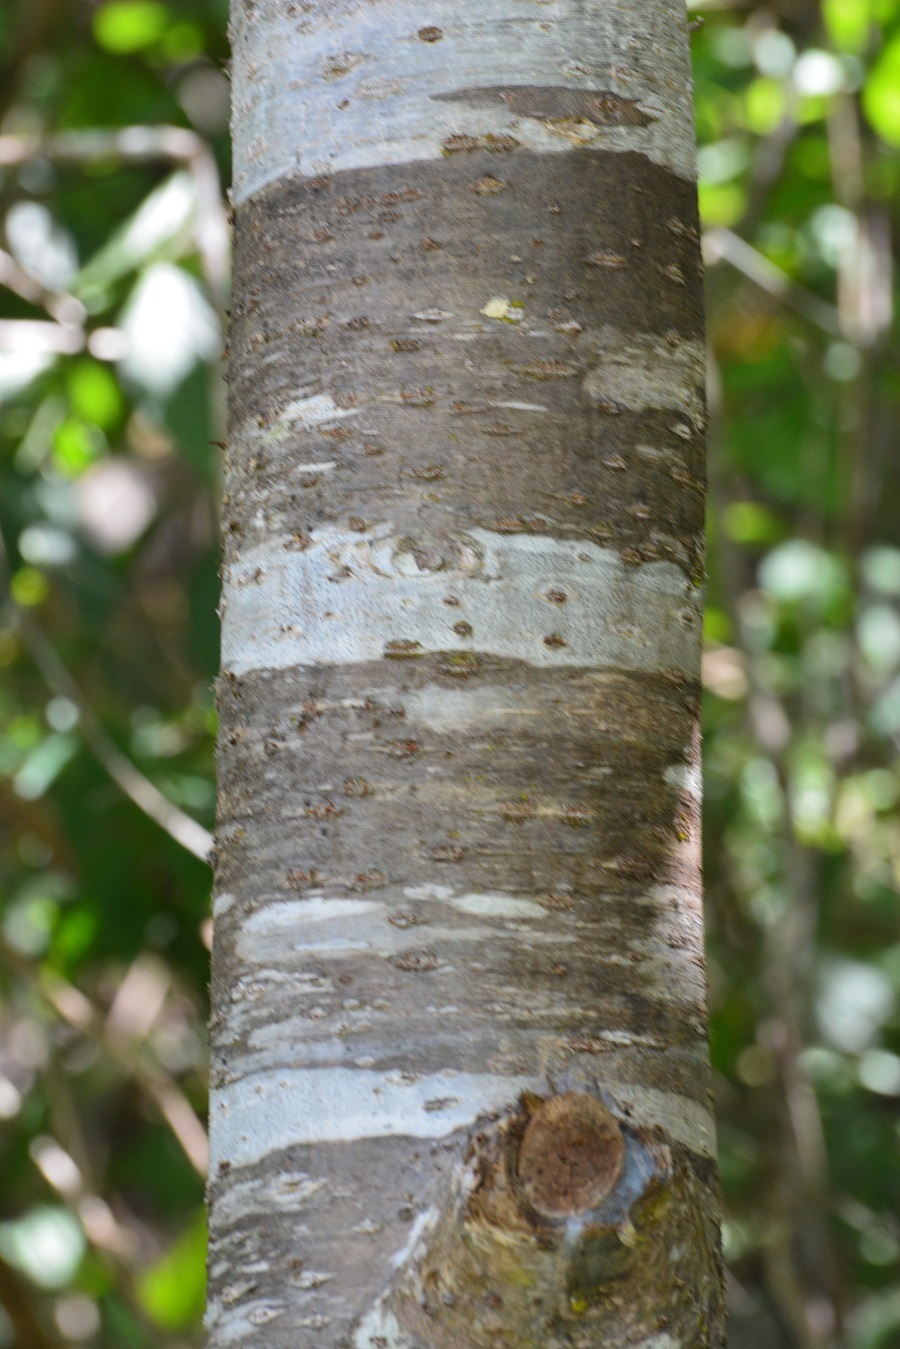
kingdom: Plantae
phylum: Tracheophyta
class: Magnoliopsida
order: Malpighiales
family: Euphorbiaceae
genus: Euphorbia
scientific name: Euphorbia lundelliana
